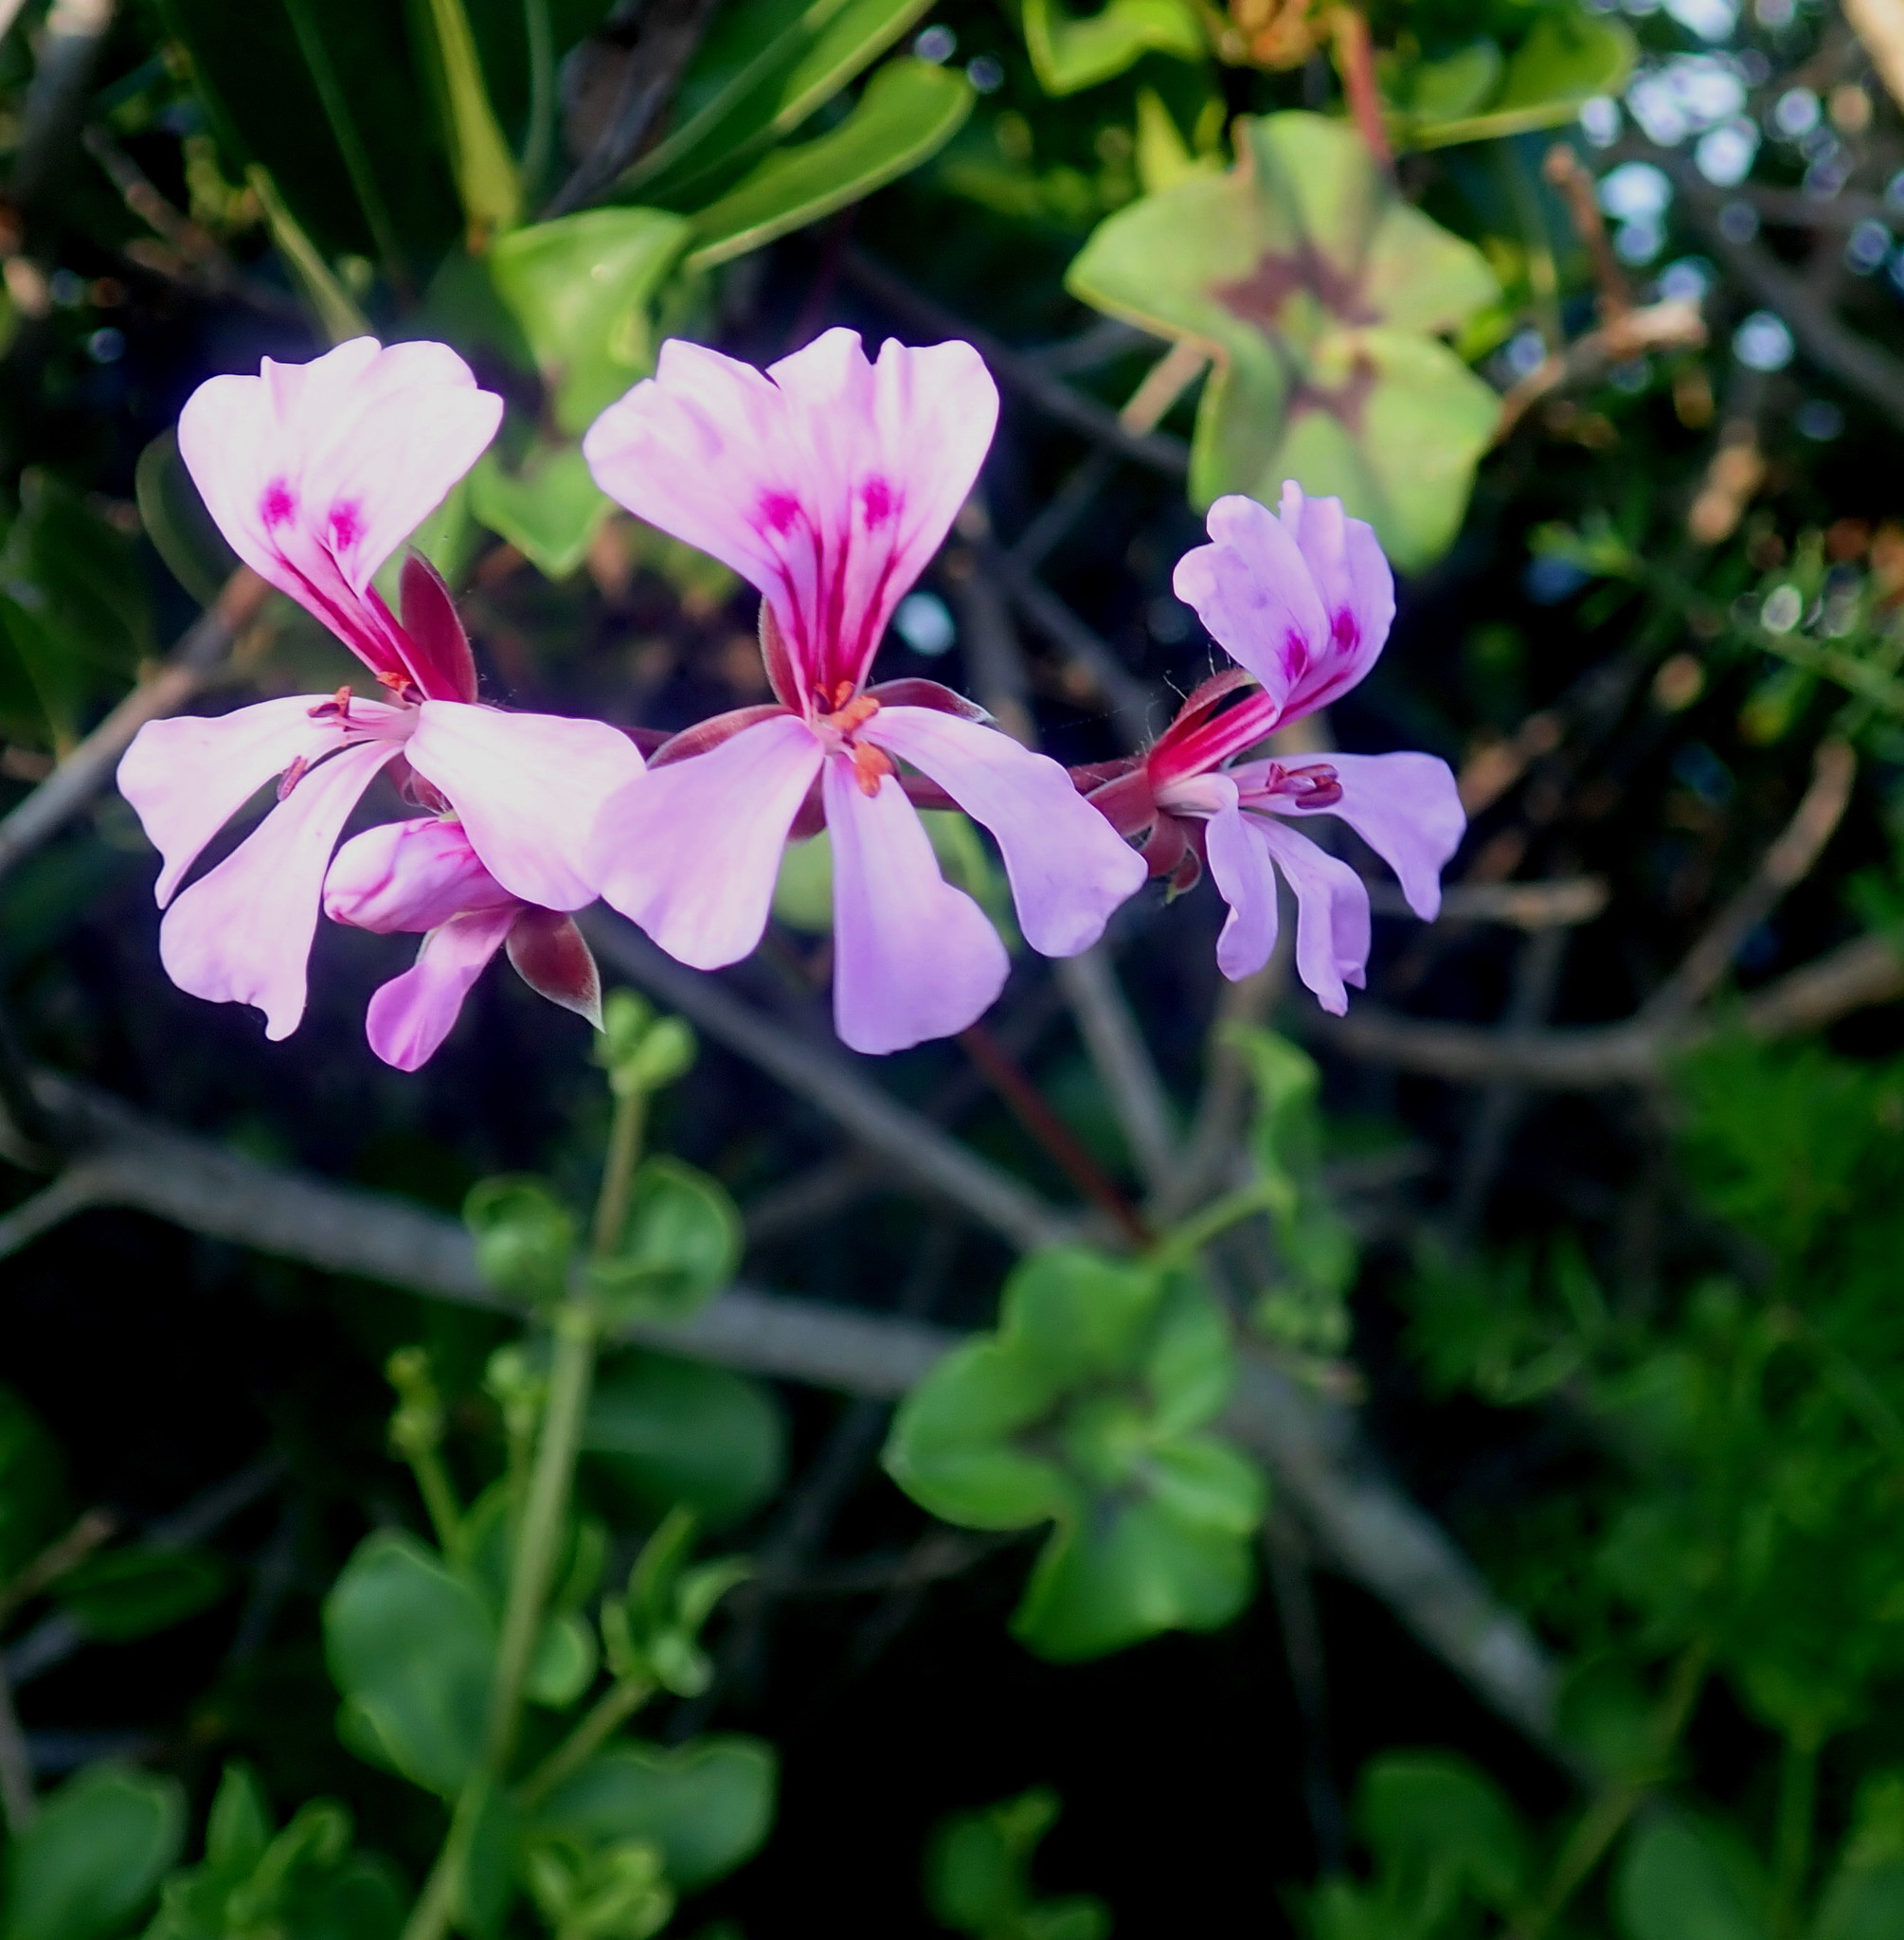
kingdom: Plantae
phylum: Tracheophyta
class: Magnoliopsida
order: Geraniales
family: Geraniaceae
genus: Pelargonium
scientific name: Pelargonium peltatum
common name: Ivyleaf geranium
